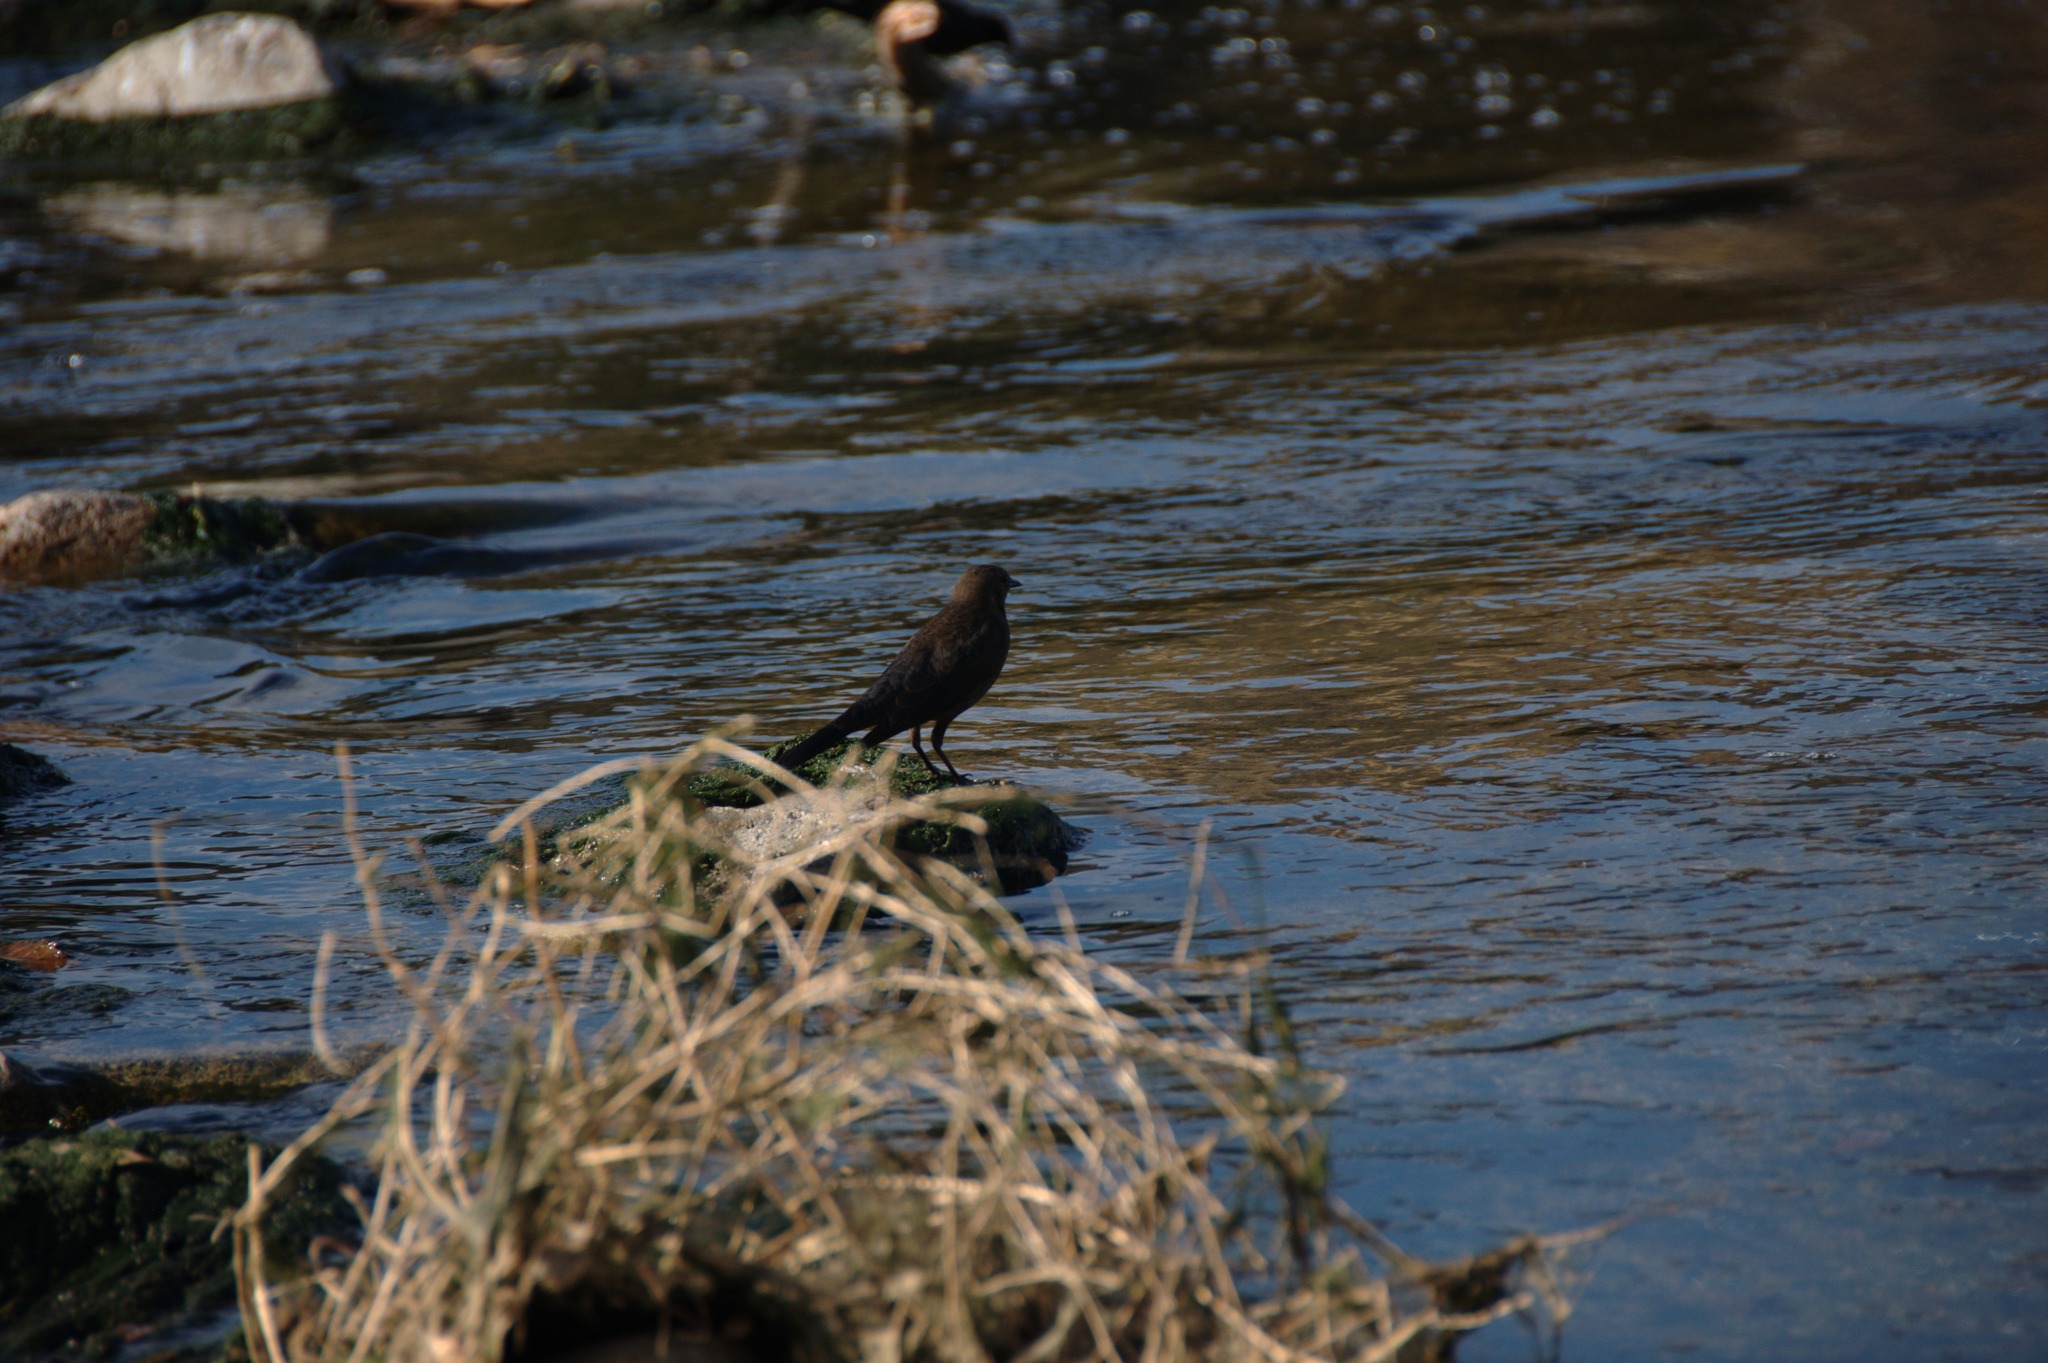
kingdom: Animalia
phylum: Chordata
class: Aves
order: Passeriformes
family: Icteridae
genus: Euphagus
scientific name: Euphagus cyanocephalus
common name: Brewer's blackbird
